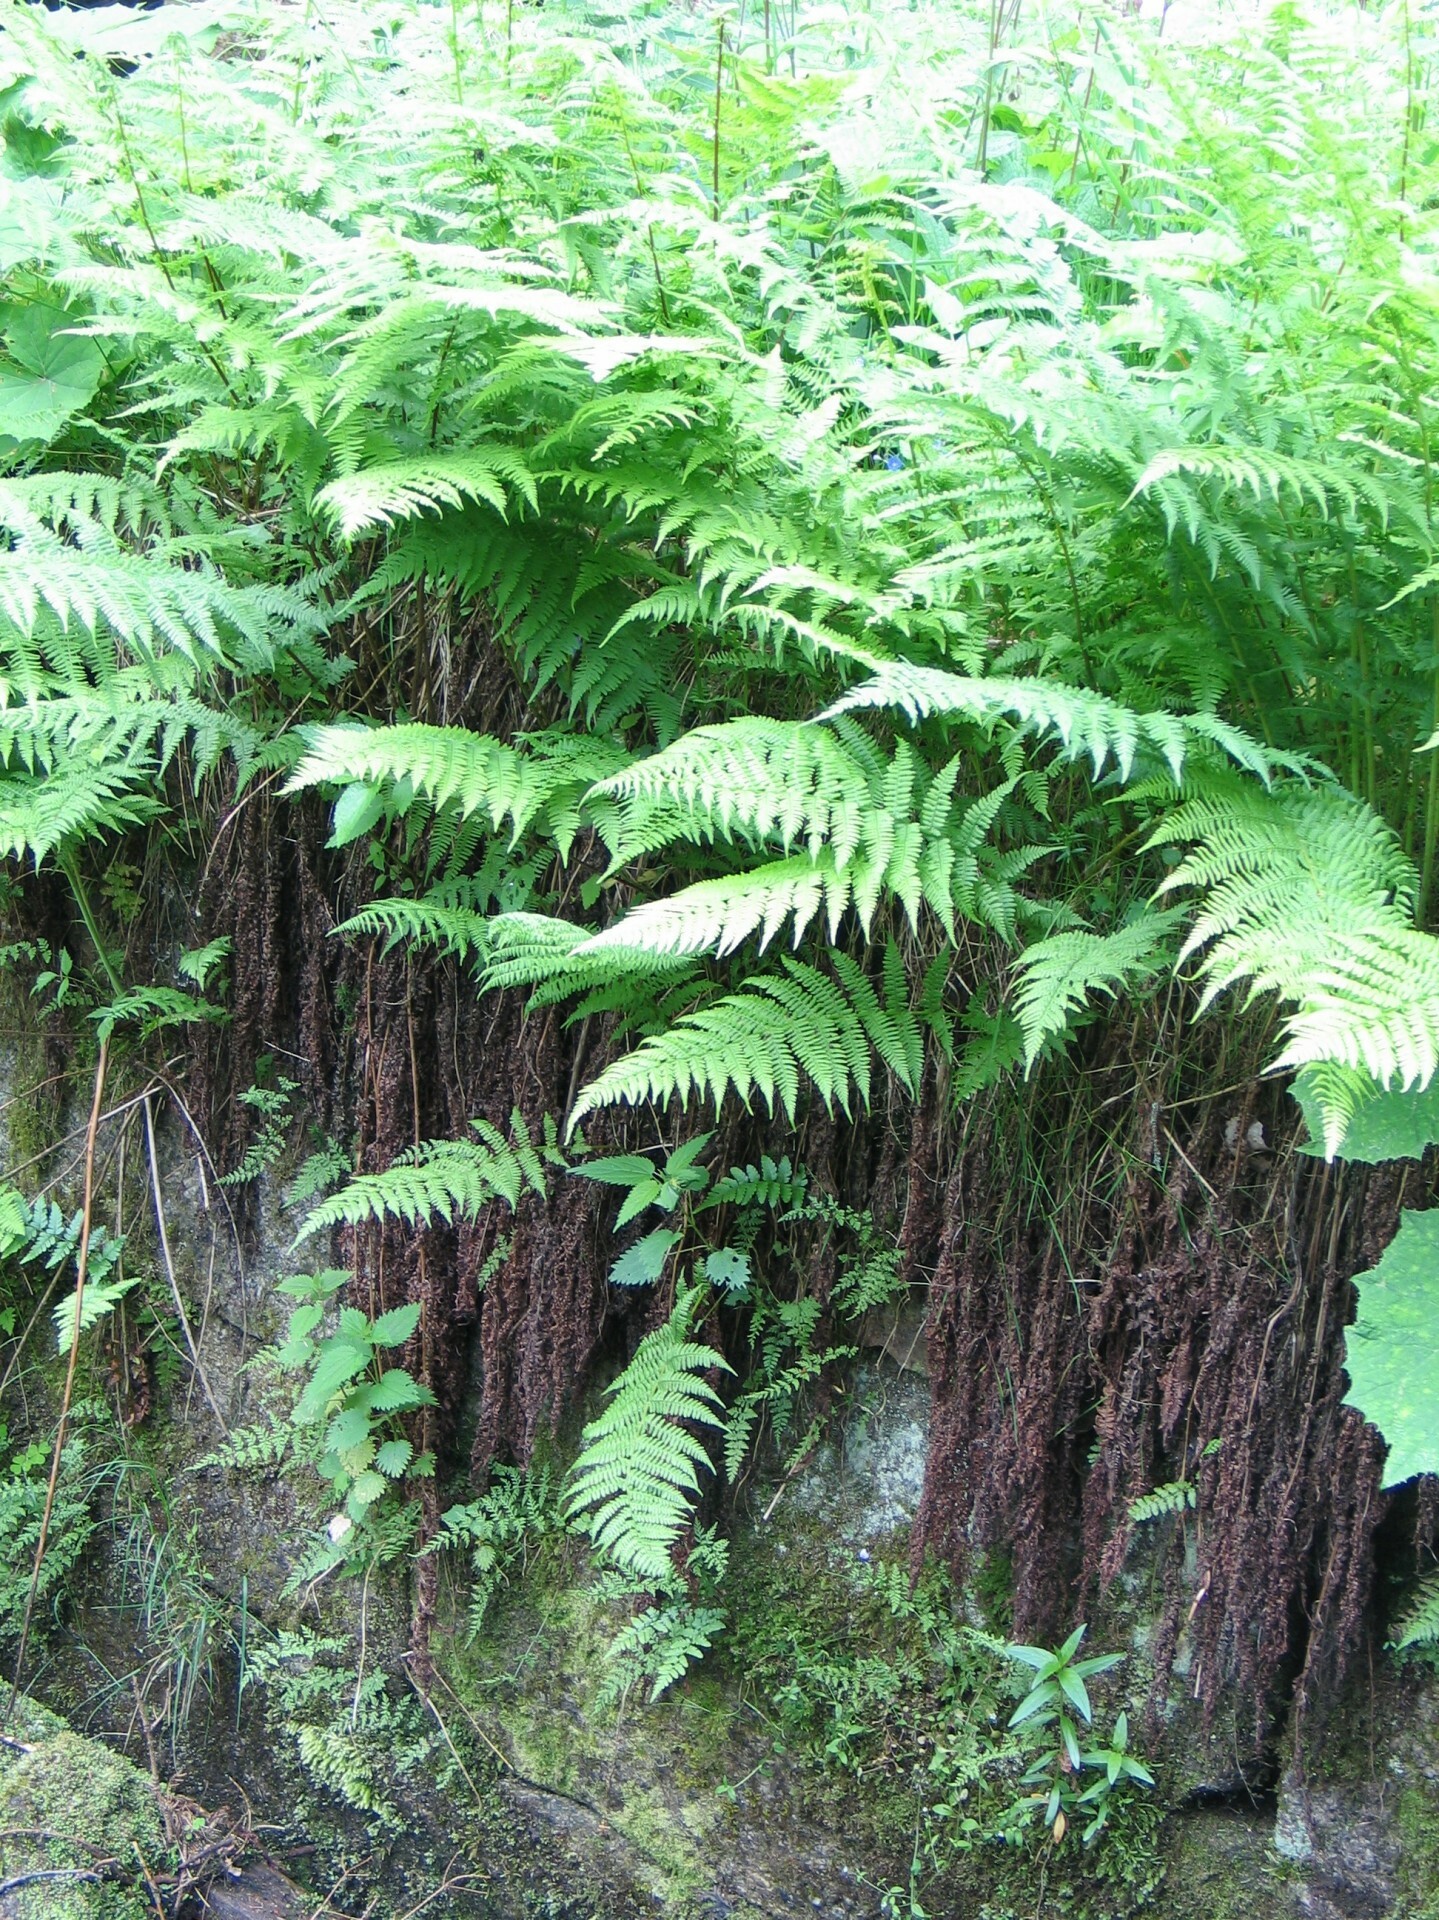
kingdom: Plantae
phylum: Tracheophyta
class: Polypodiopsida
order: Polypodiales
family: Athyriaceae
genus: Athyrium
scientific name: Athyrium filix-femina
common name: Lady fern
